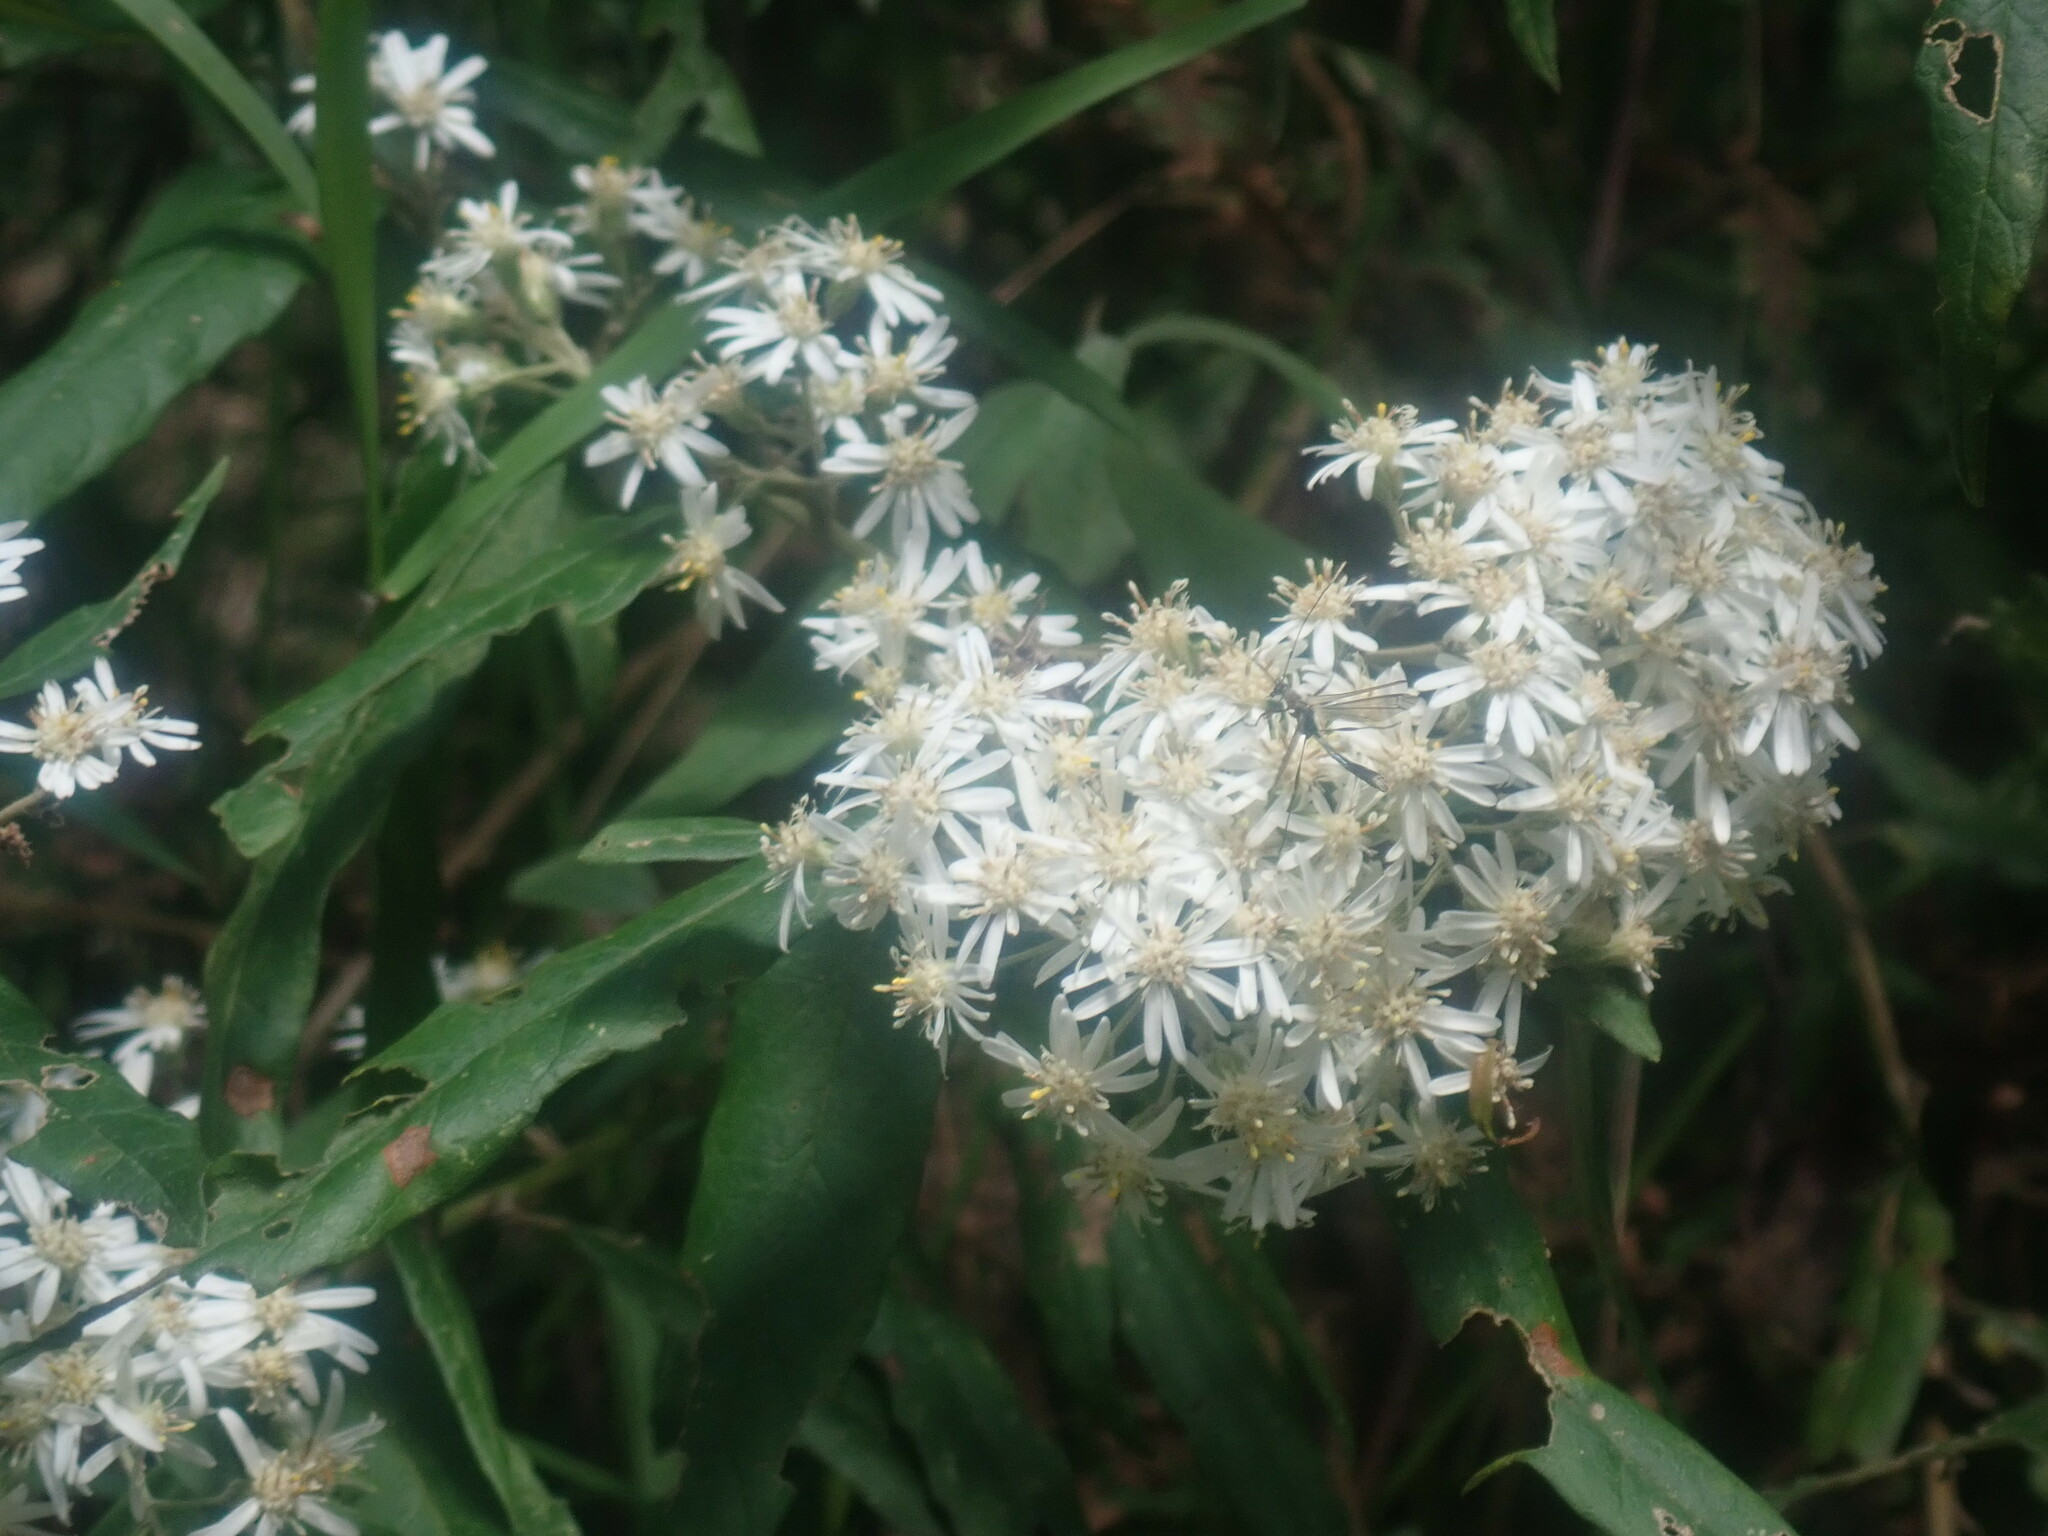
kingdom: Plantae
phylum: Tracheophyta
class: Magnoliopsida
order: Asterales
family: Asteraceae
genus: Olearia
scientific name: Olearia lirata
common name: Dusty daisybush
